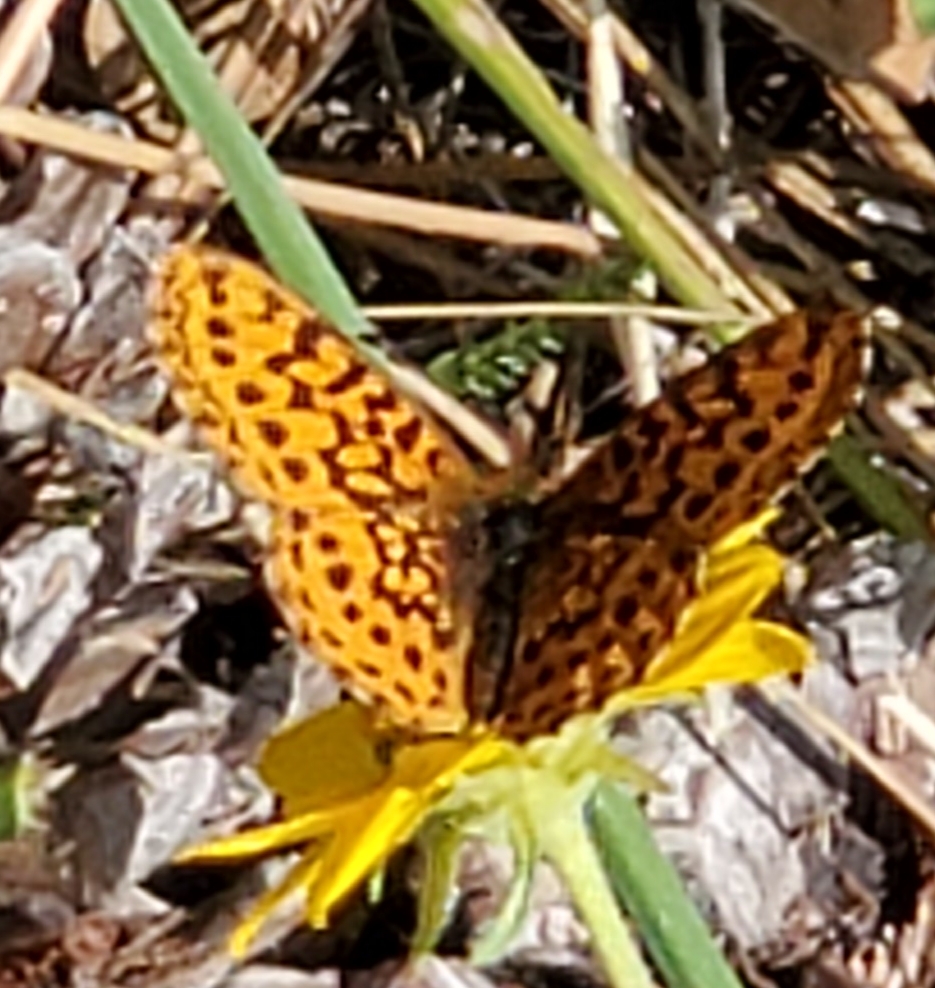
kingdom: Animalia
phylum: Arthropoda
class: Insecta
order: Lepidoptera
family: Nymphalidae
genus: Boloria
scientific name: Boloria epithore
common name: Pacific fritillary
